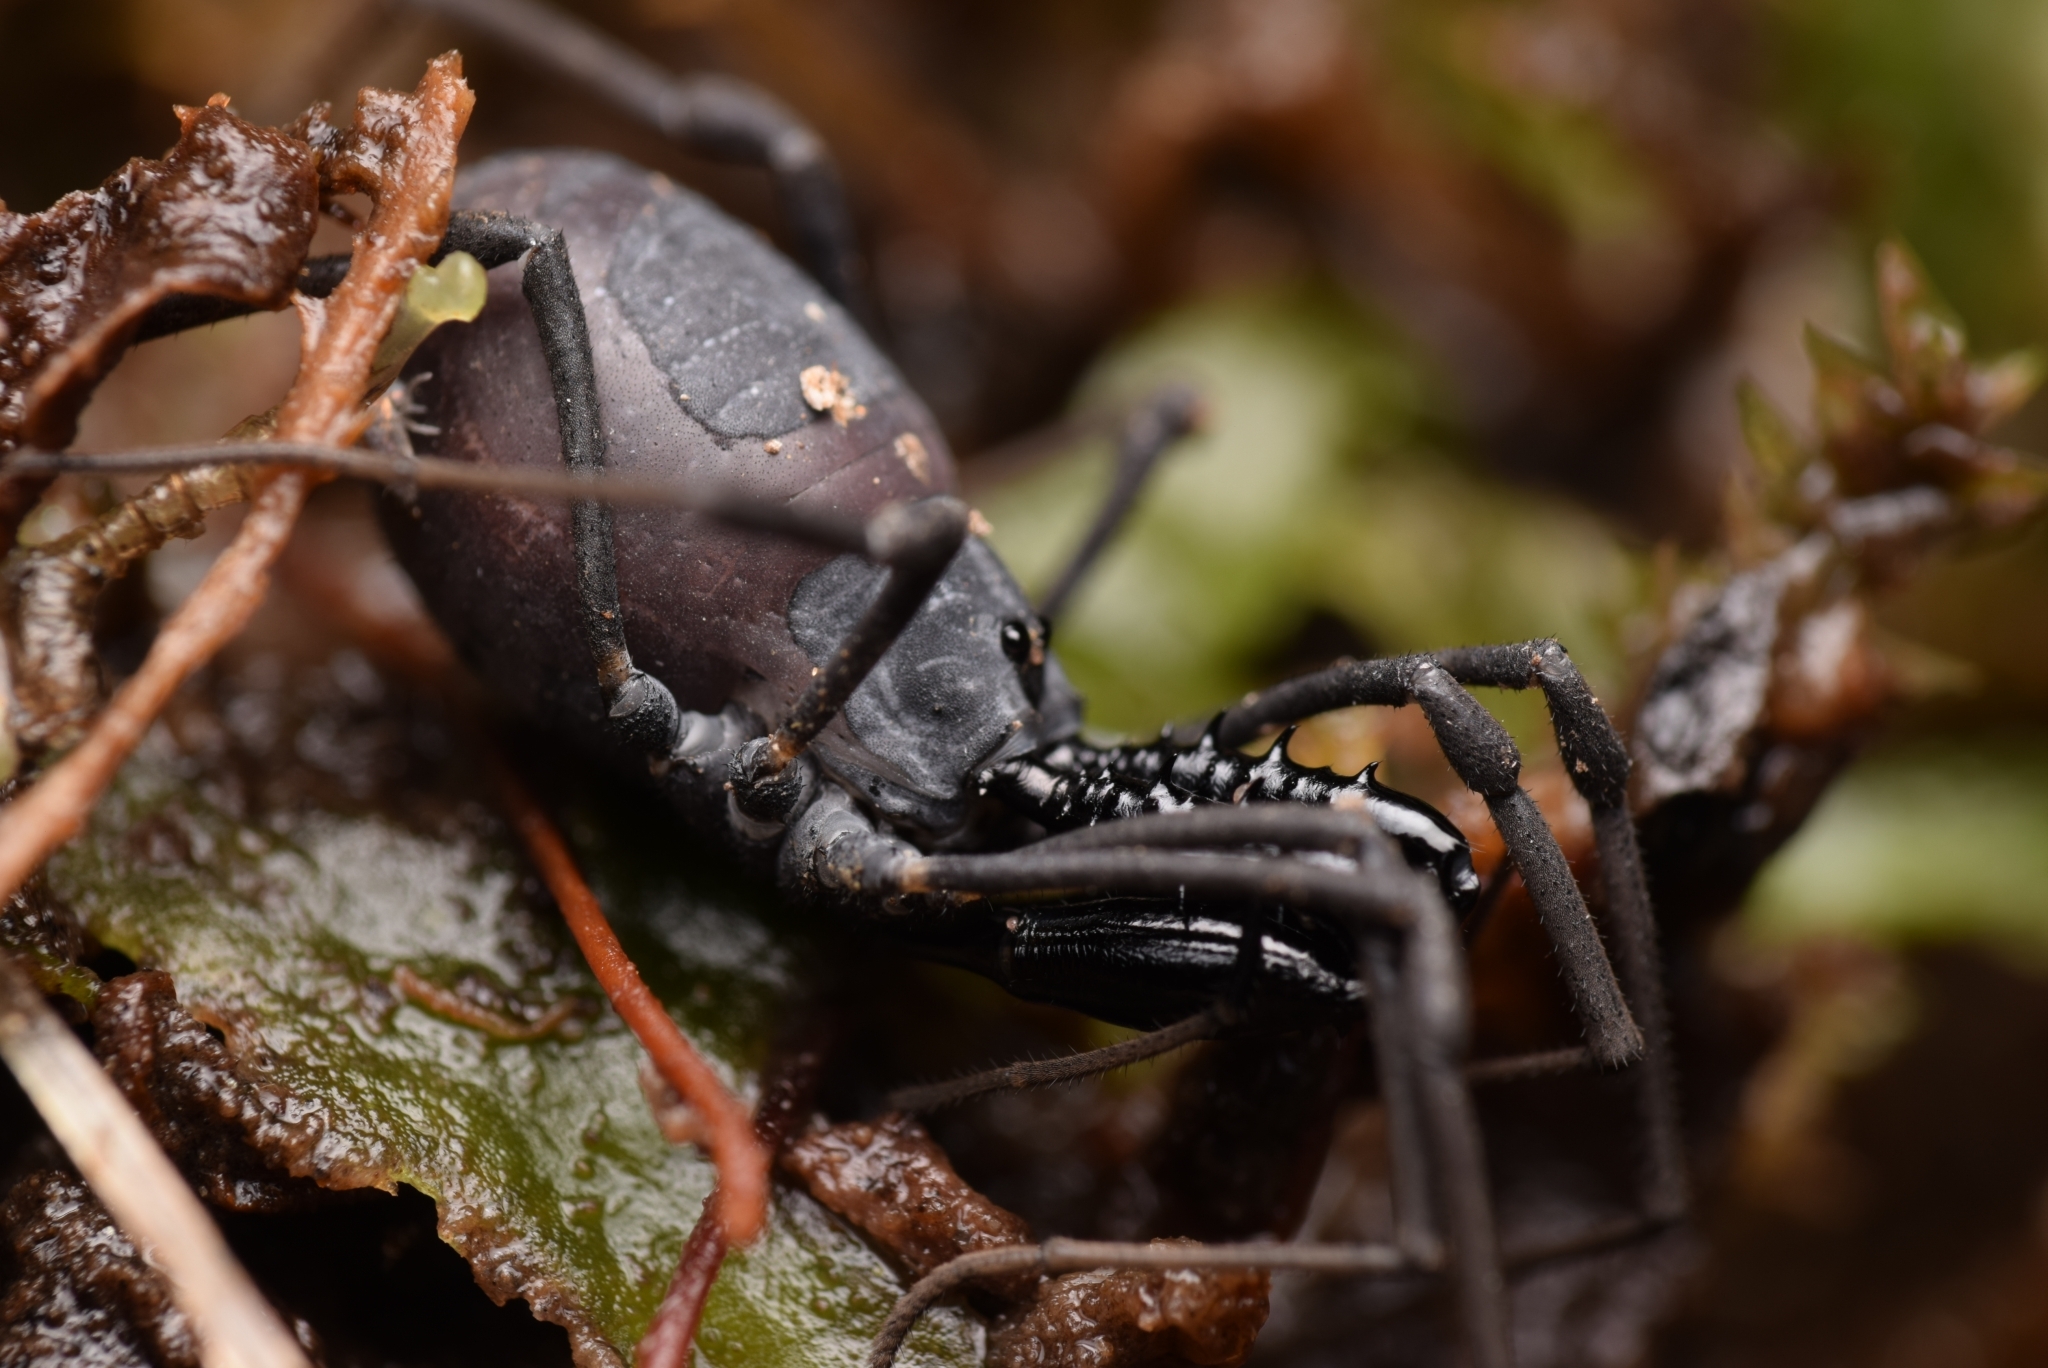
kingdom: Animalia
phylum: Arthropoda
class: Arachnida
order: Opiliones
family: Ischyropsalididae
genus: Ischyropsalis
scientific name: Ischyropsalis luteipes
